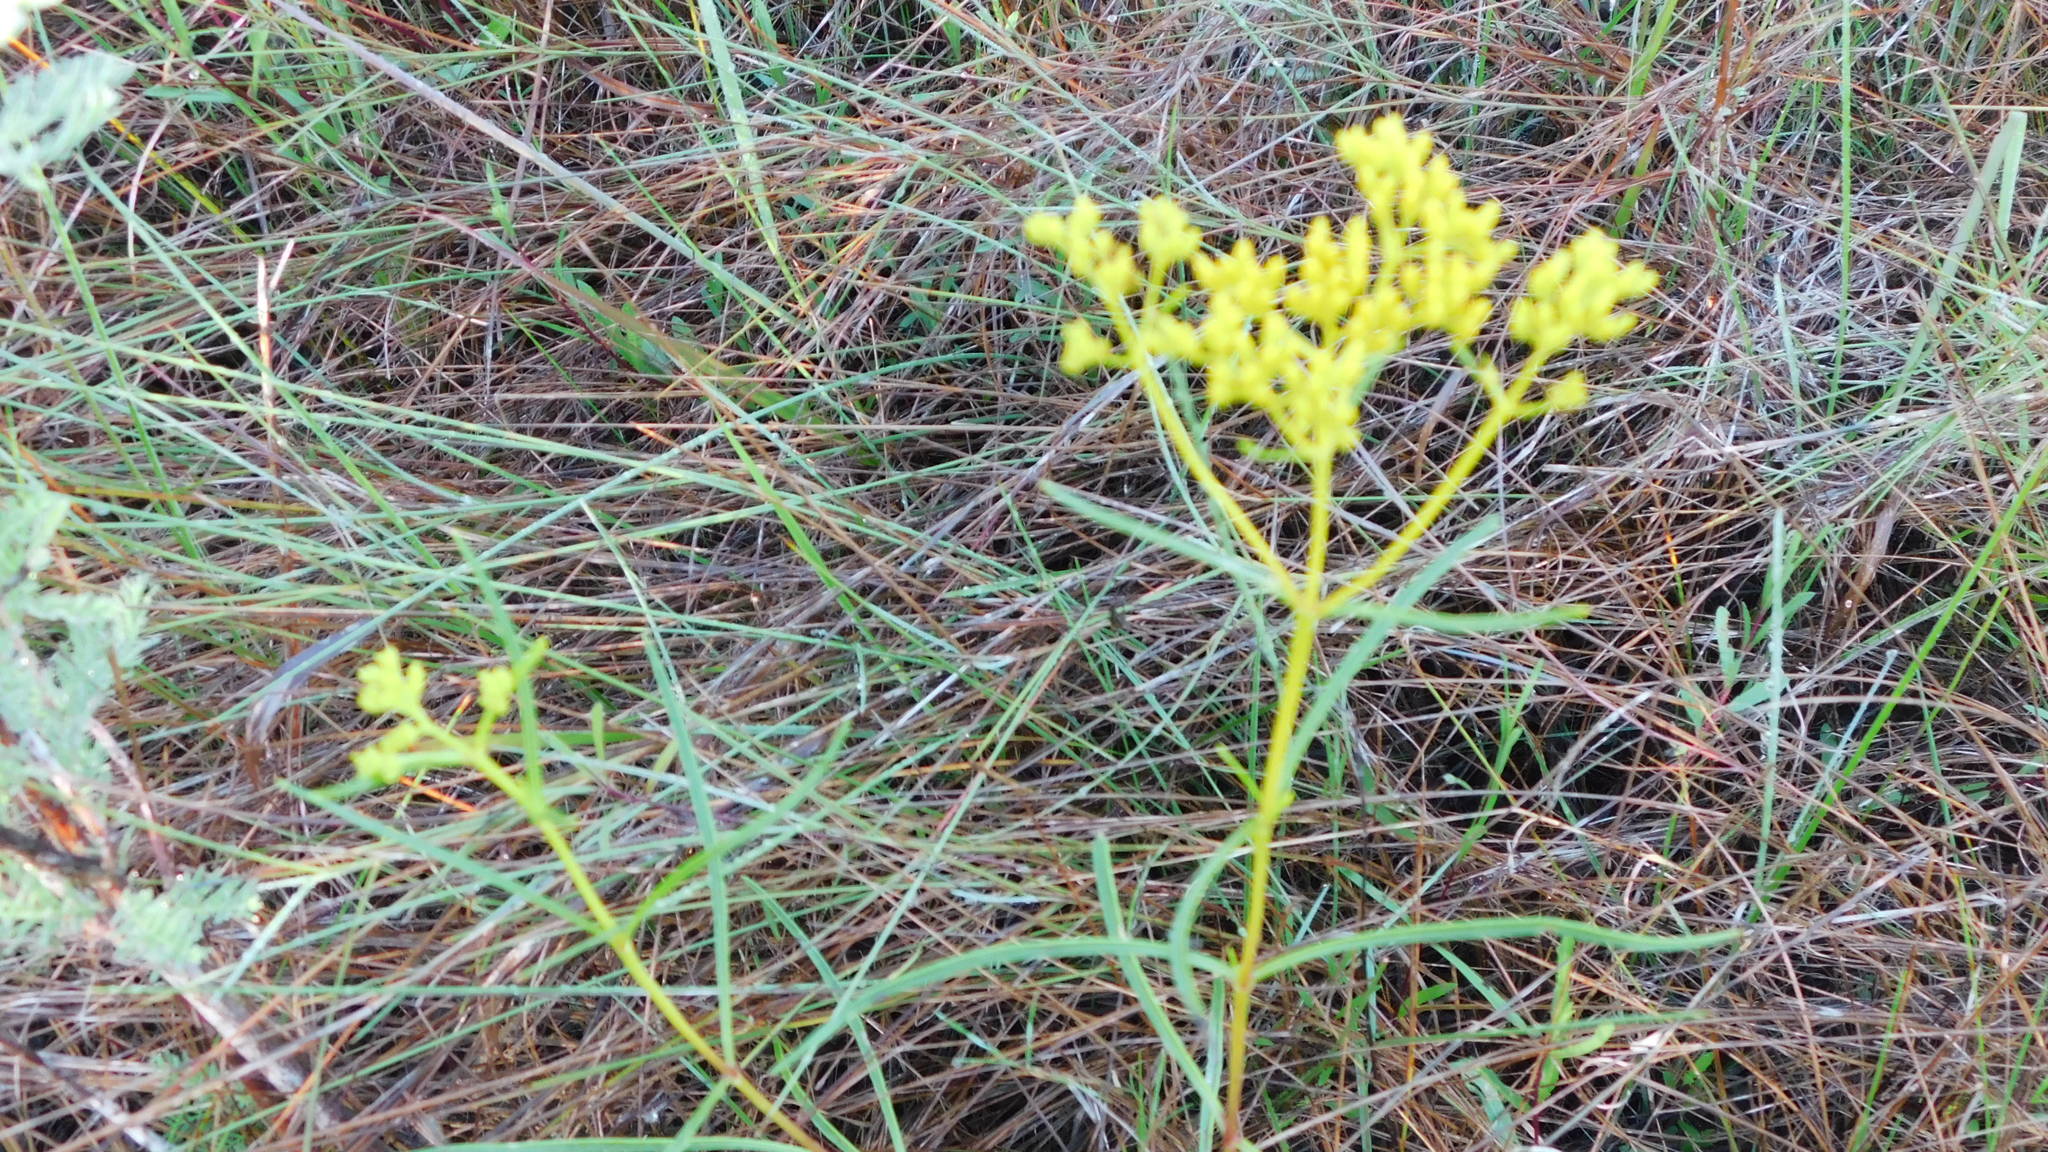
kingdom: Plantae
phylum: Tracheophyta
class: Magnoliopsida
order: Asterales
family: Asteraceae
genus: Flaveria
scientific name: Flaveria linearis
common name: Yellowtop
